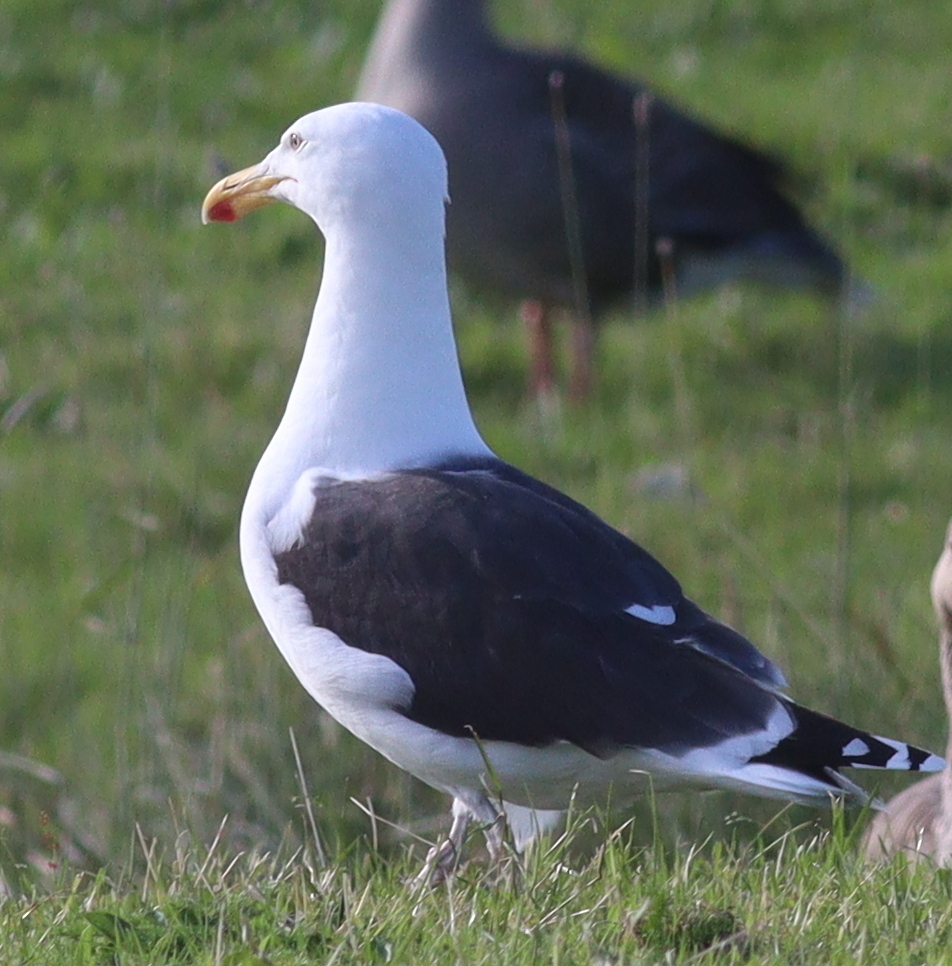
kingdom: Animalia
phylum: Chordata
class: Aves
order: Charadriiformes
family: Laridae
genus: Larus
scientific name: Larus marinus
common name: Great black-backed gull
